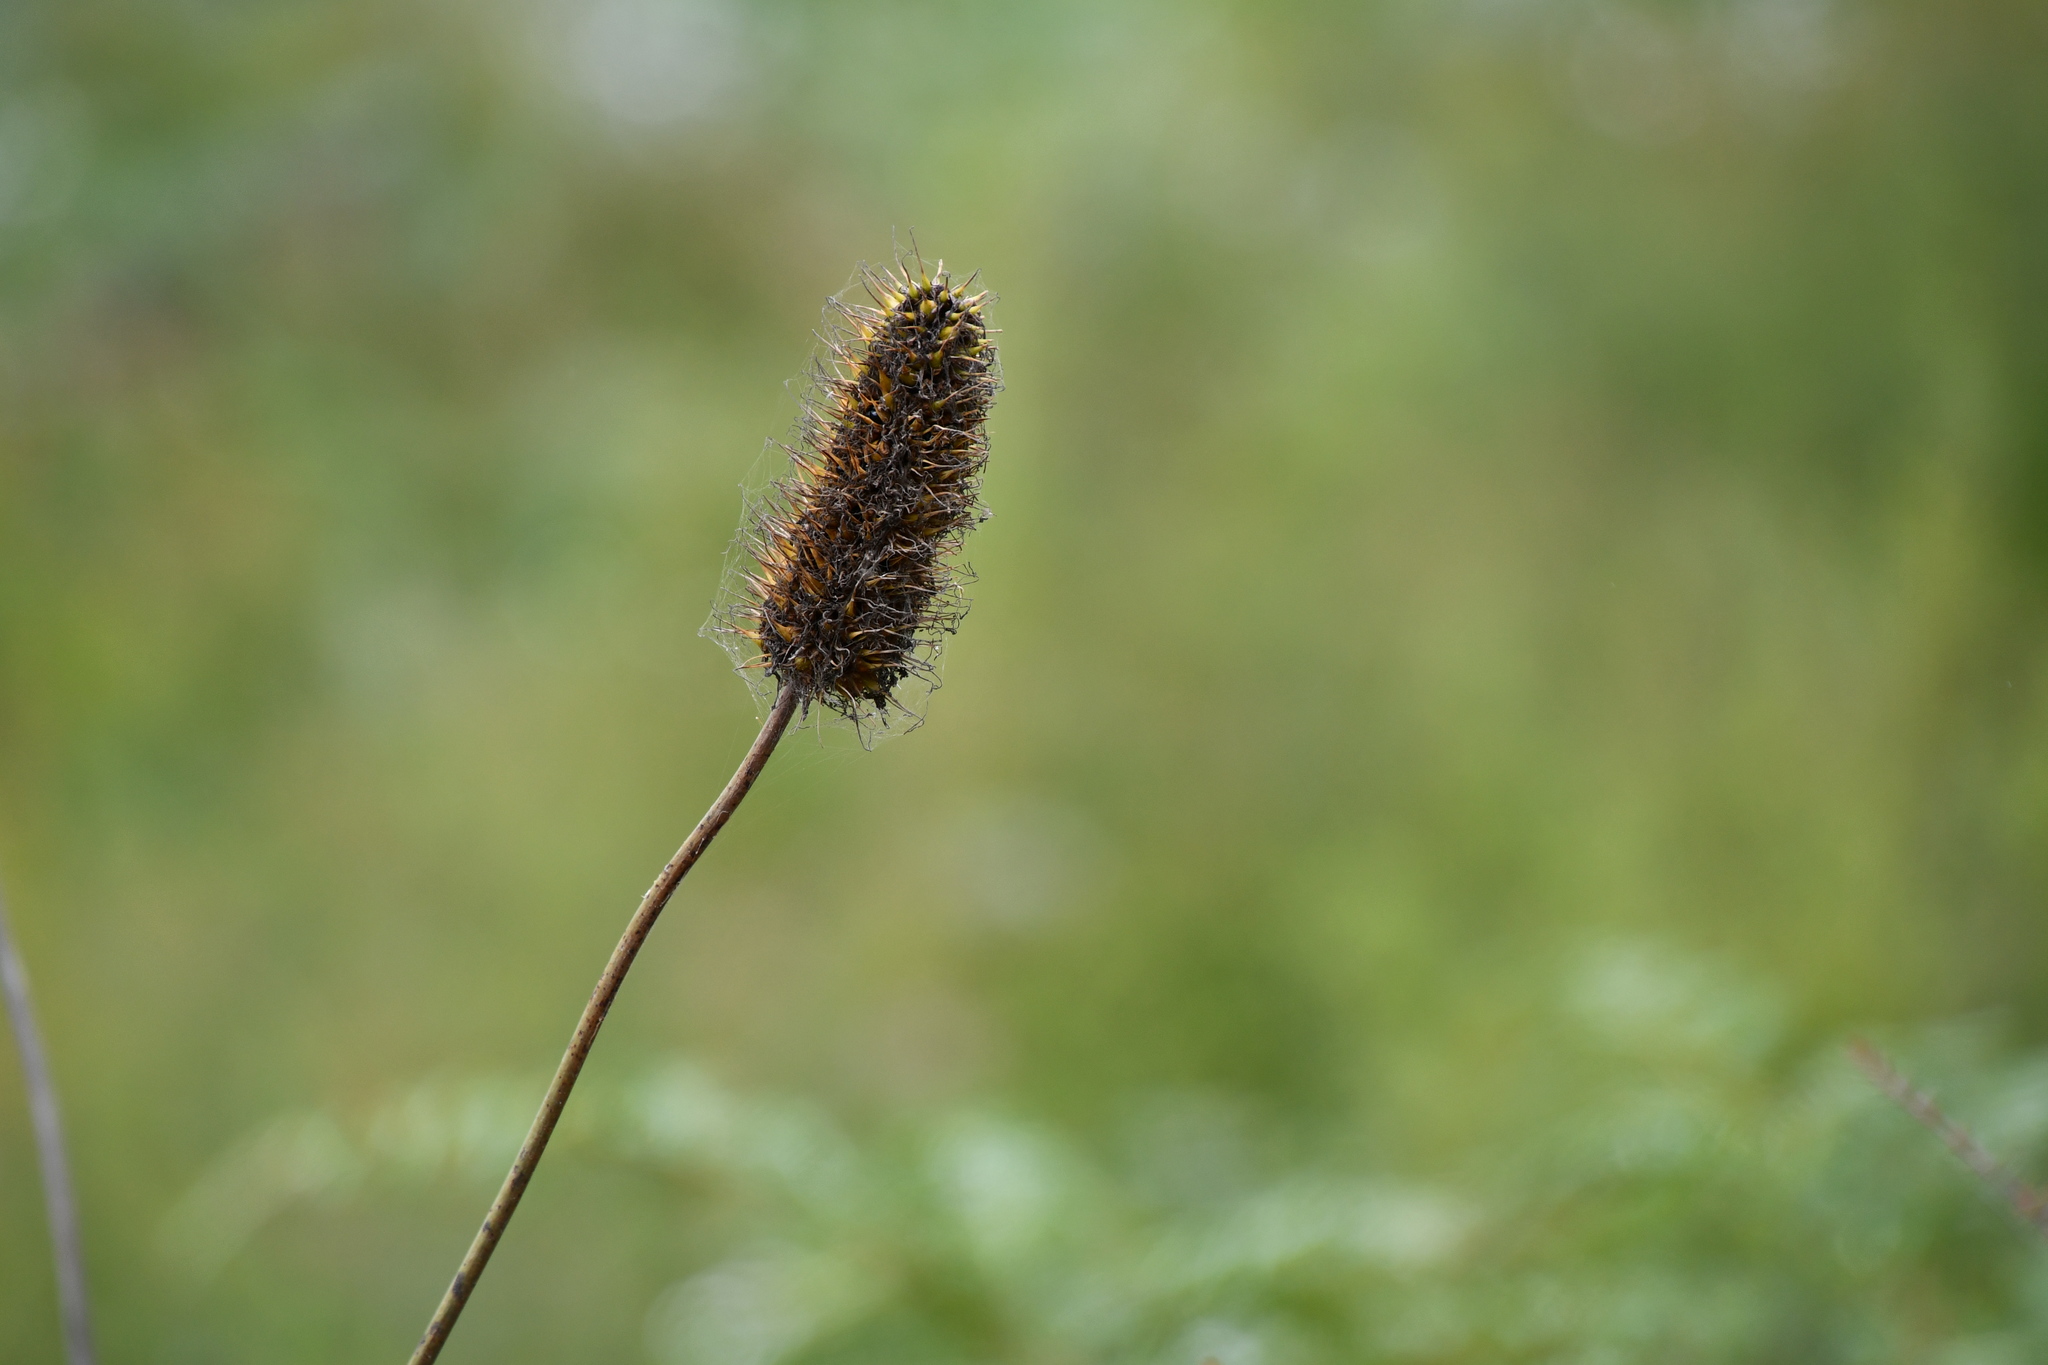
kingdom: Plantae
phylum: Tracheophyta
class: Liliopsida
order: Asparagales
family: Asphodelaceae
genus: Xanthorrhoea
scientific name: Xanthorrhoea macronema
